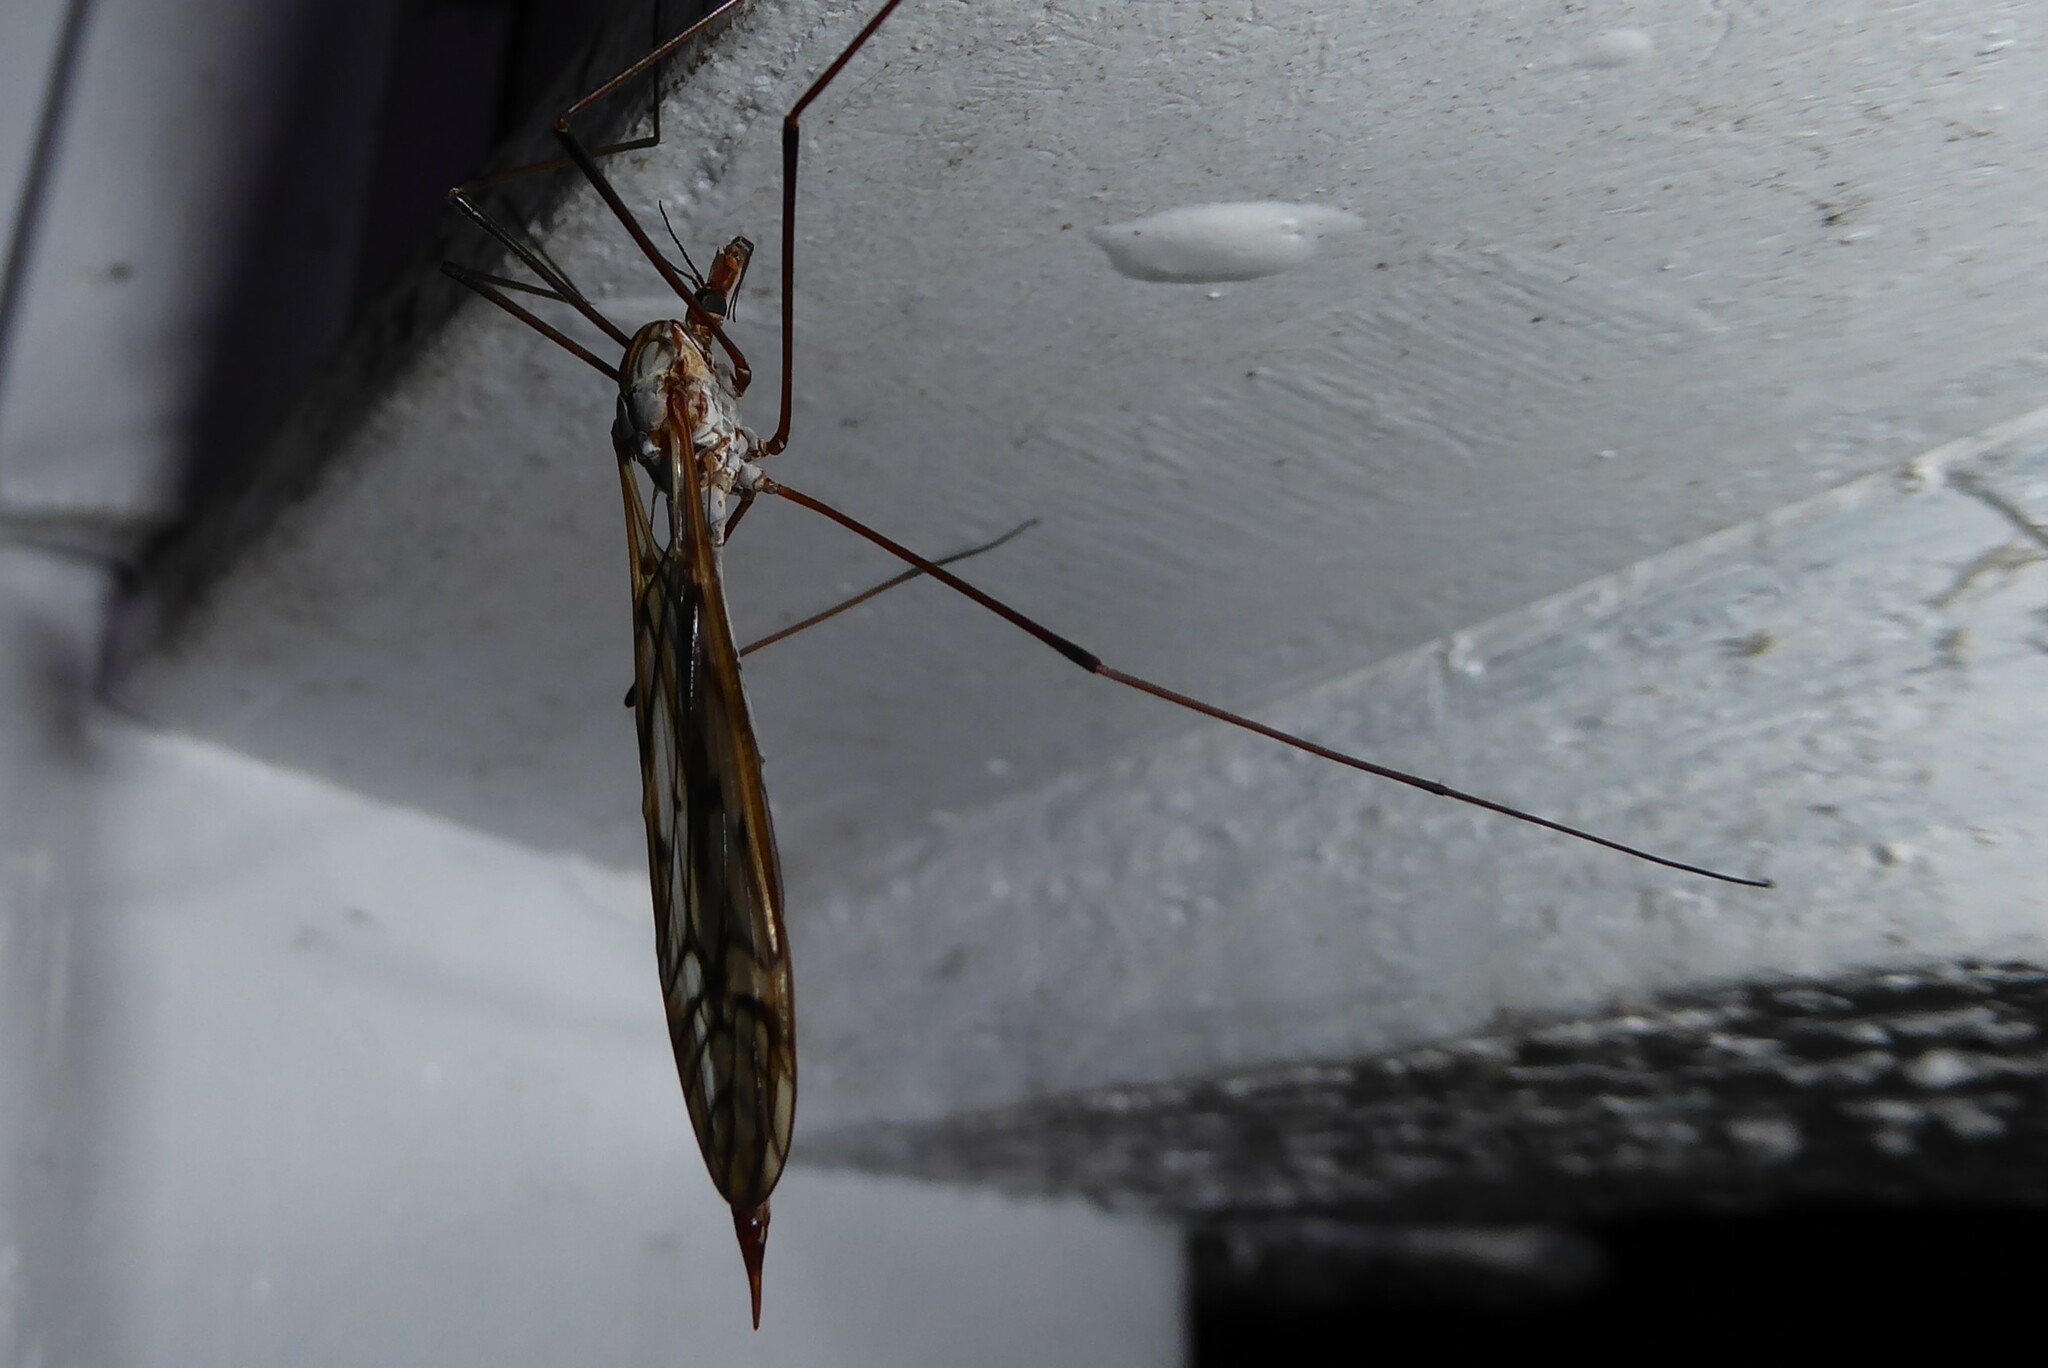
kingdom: Animalia
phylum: Arthropoda
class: Insecta
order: Diptera
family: Tipulidae
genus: Zelandotipula
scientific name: Zelandotipula novarae
